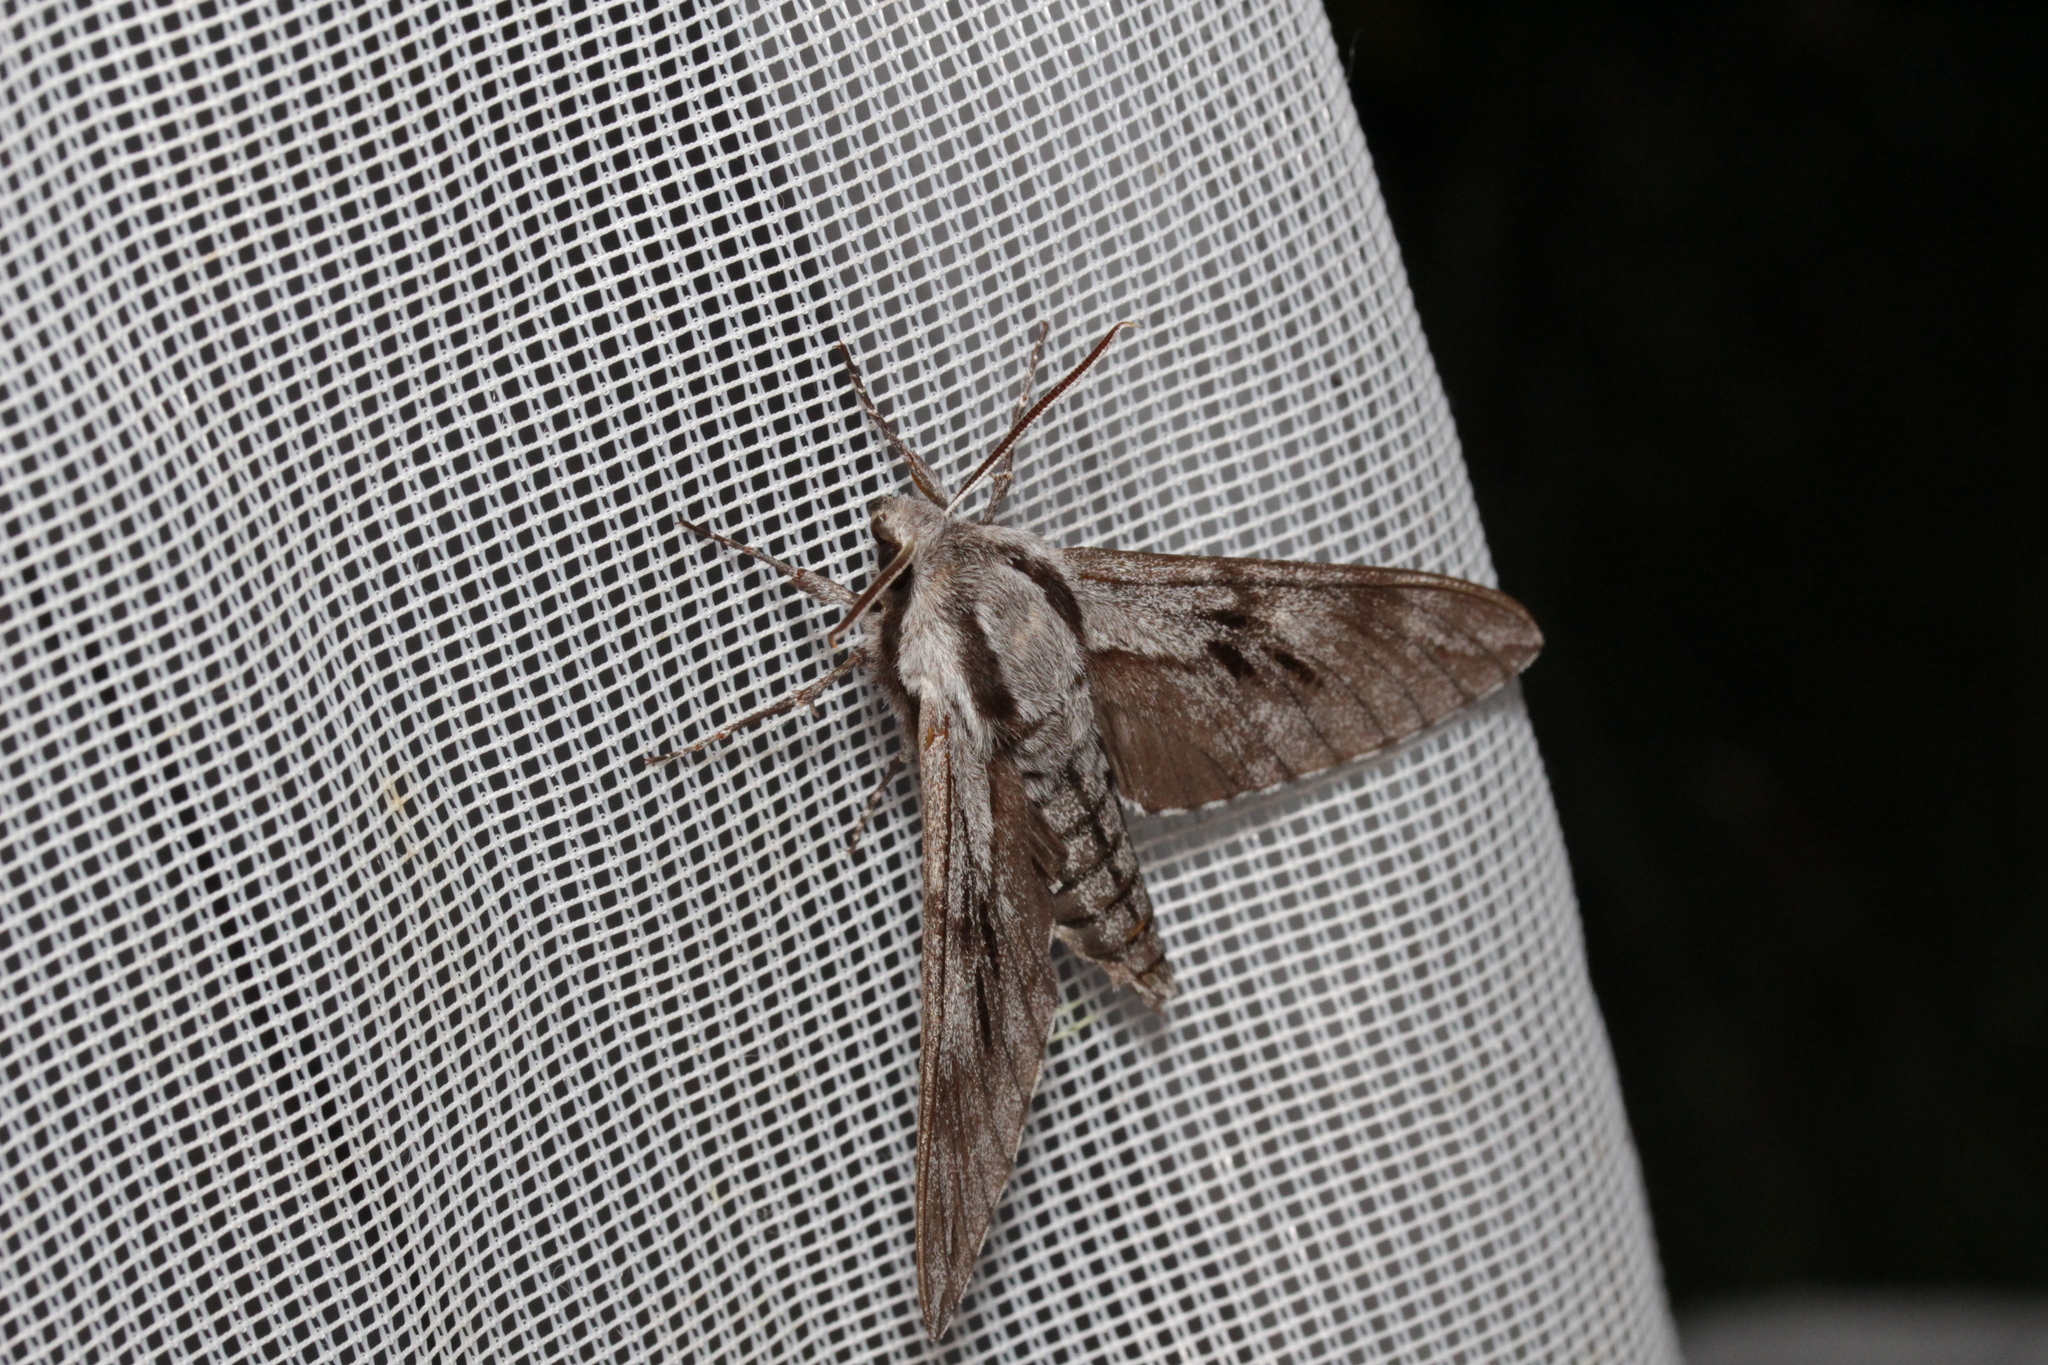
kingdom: Animalia
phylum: Arthropoda
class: Insecta
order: Lepidoptera
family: Sphingidae
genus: Sphinx
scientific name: Sphinx pinastri
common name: Pine hawk-moth
